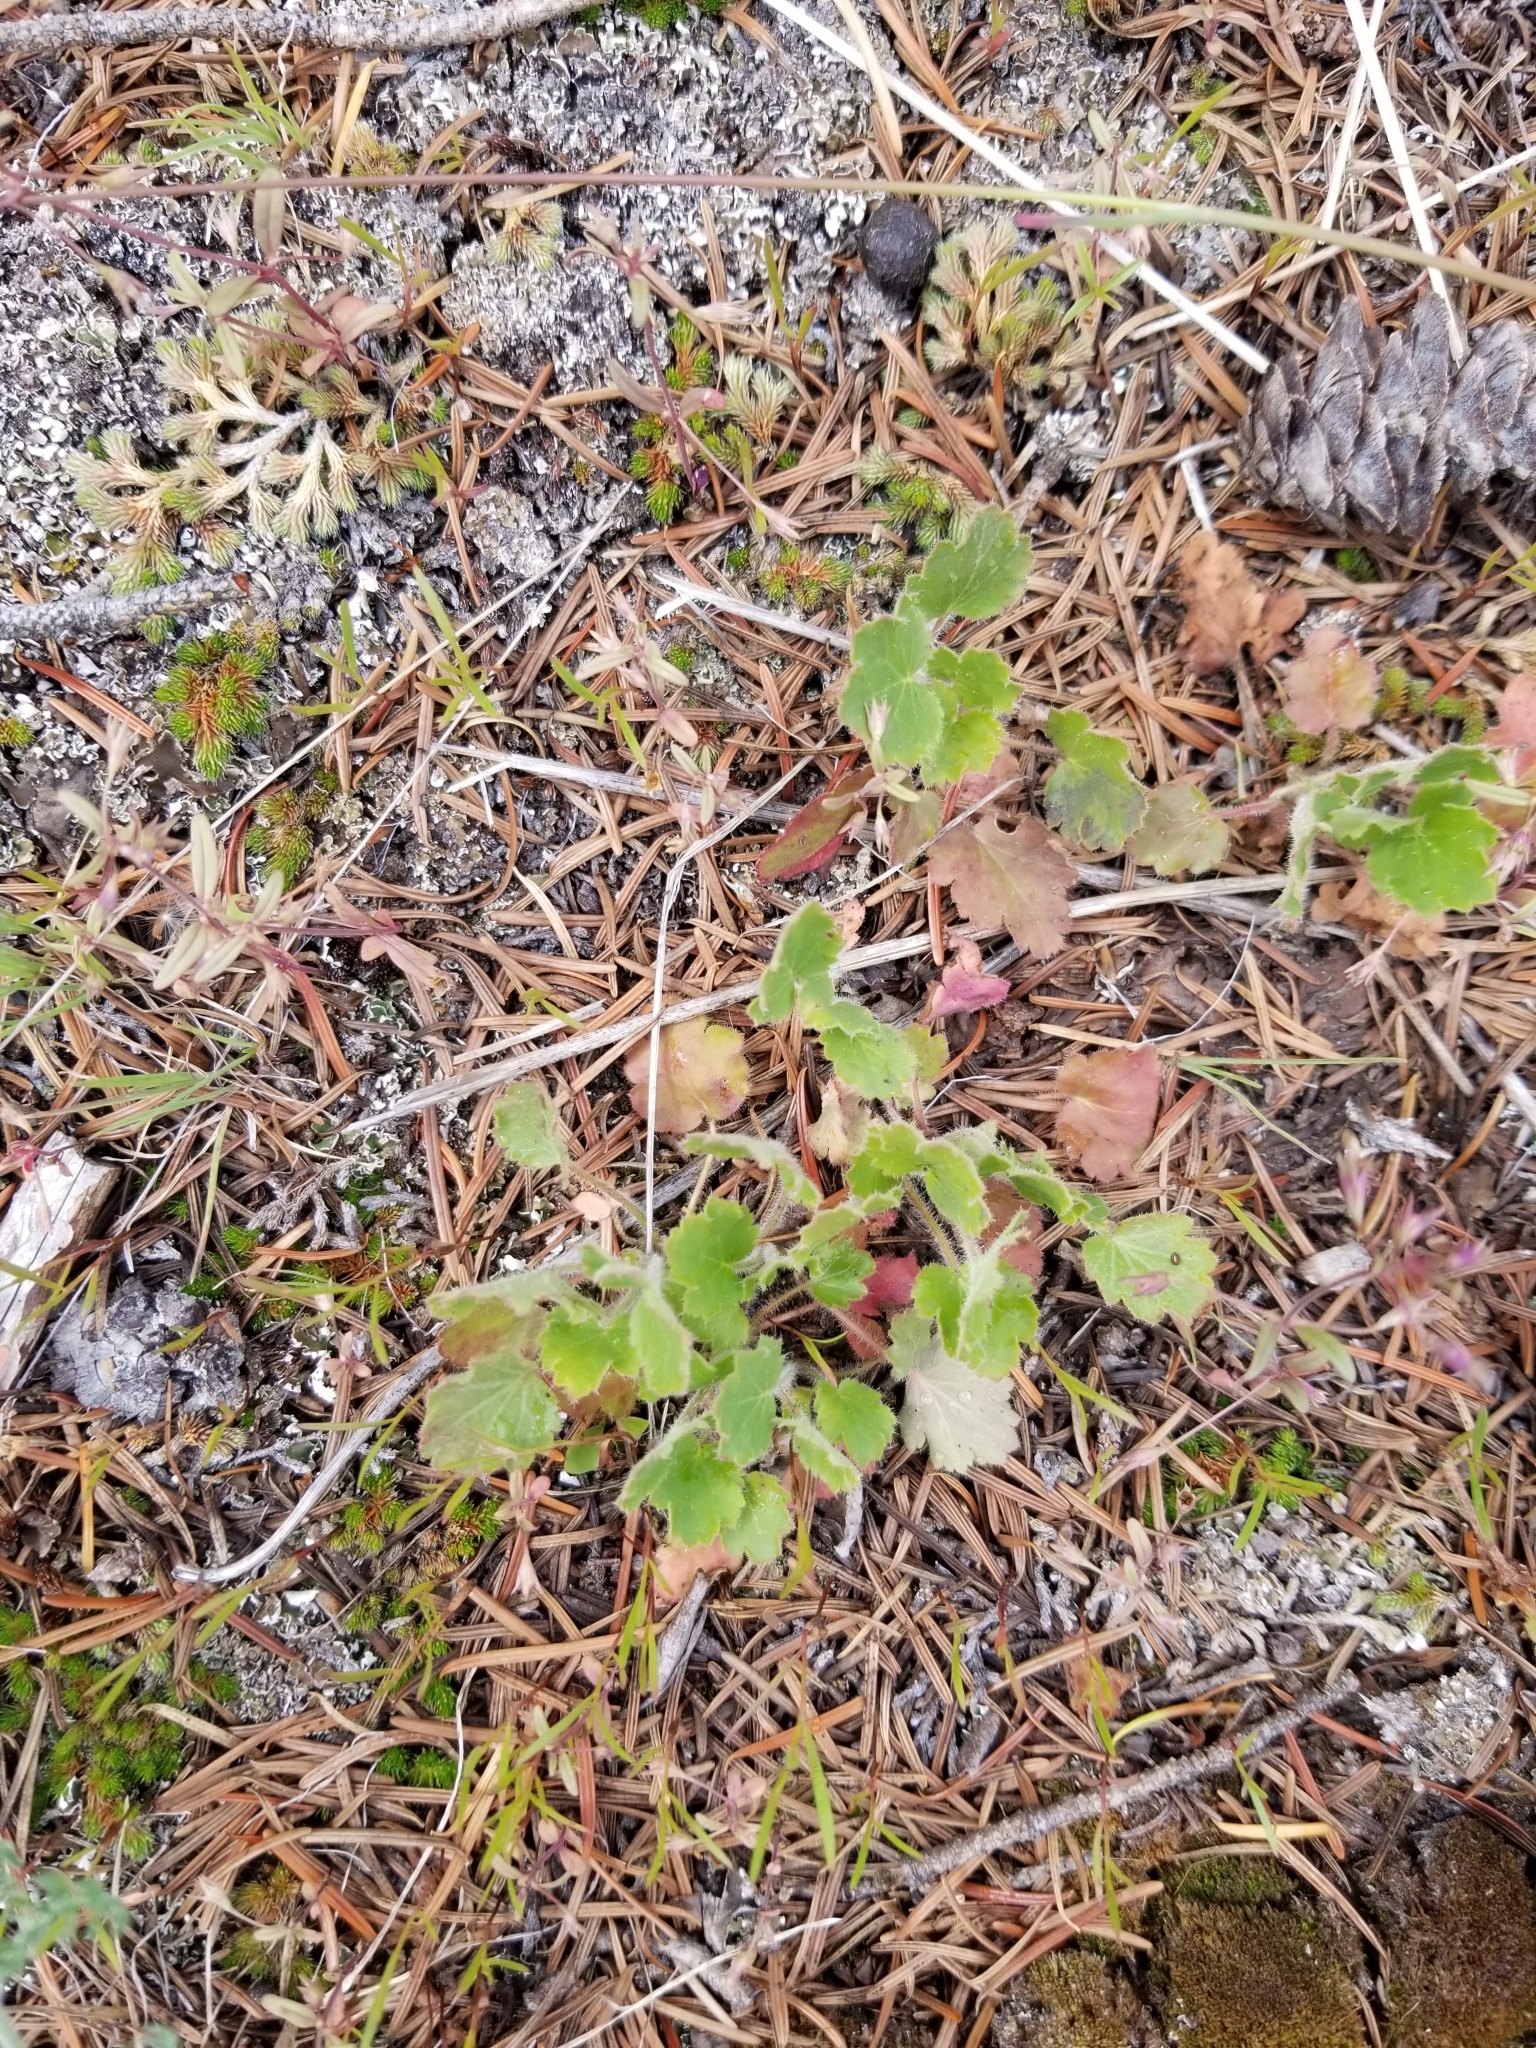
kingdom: Plantae
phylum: Tracheophyta
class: Magnoliopsida
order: Saxifragales
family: Saxifragaceae
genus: Heuchera
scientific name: Heuchera cylindrica
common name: Mat alumroot
